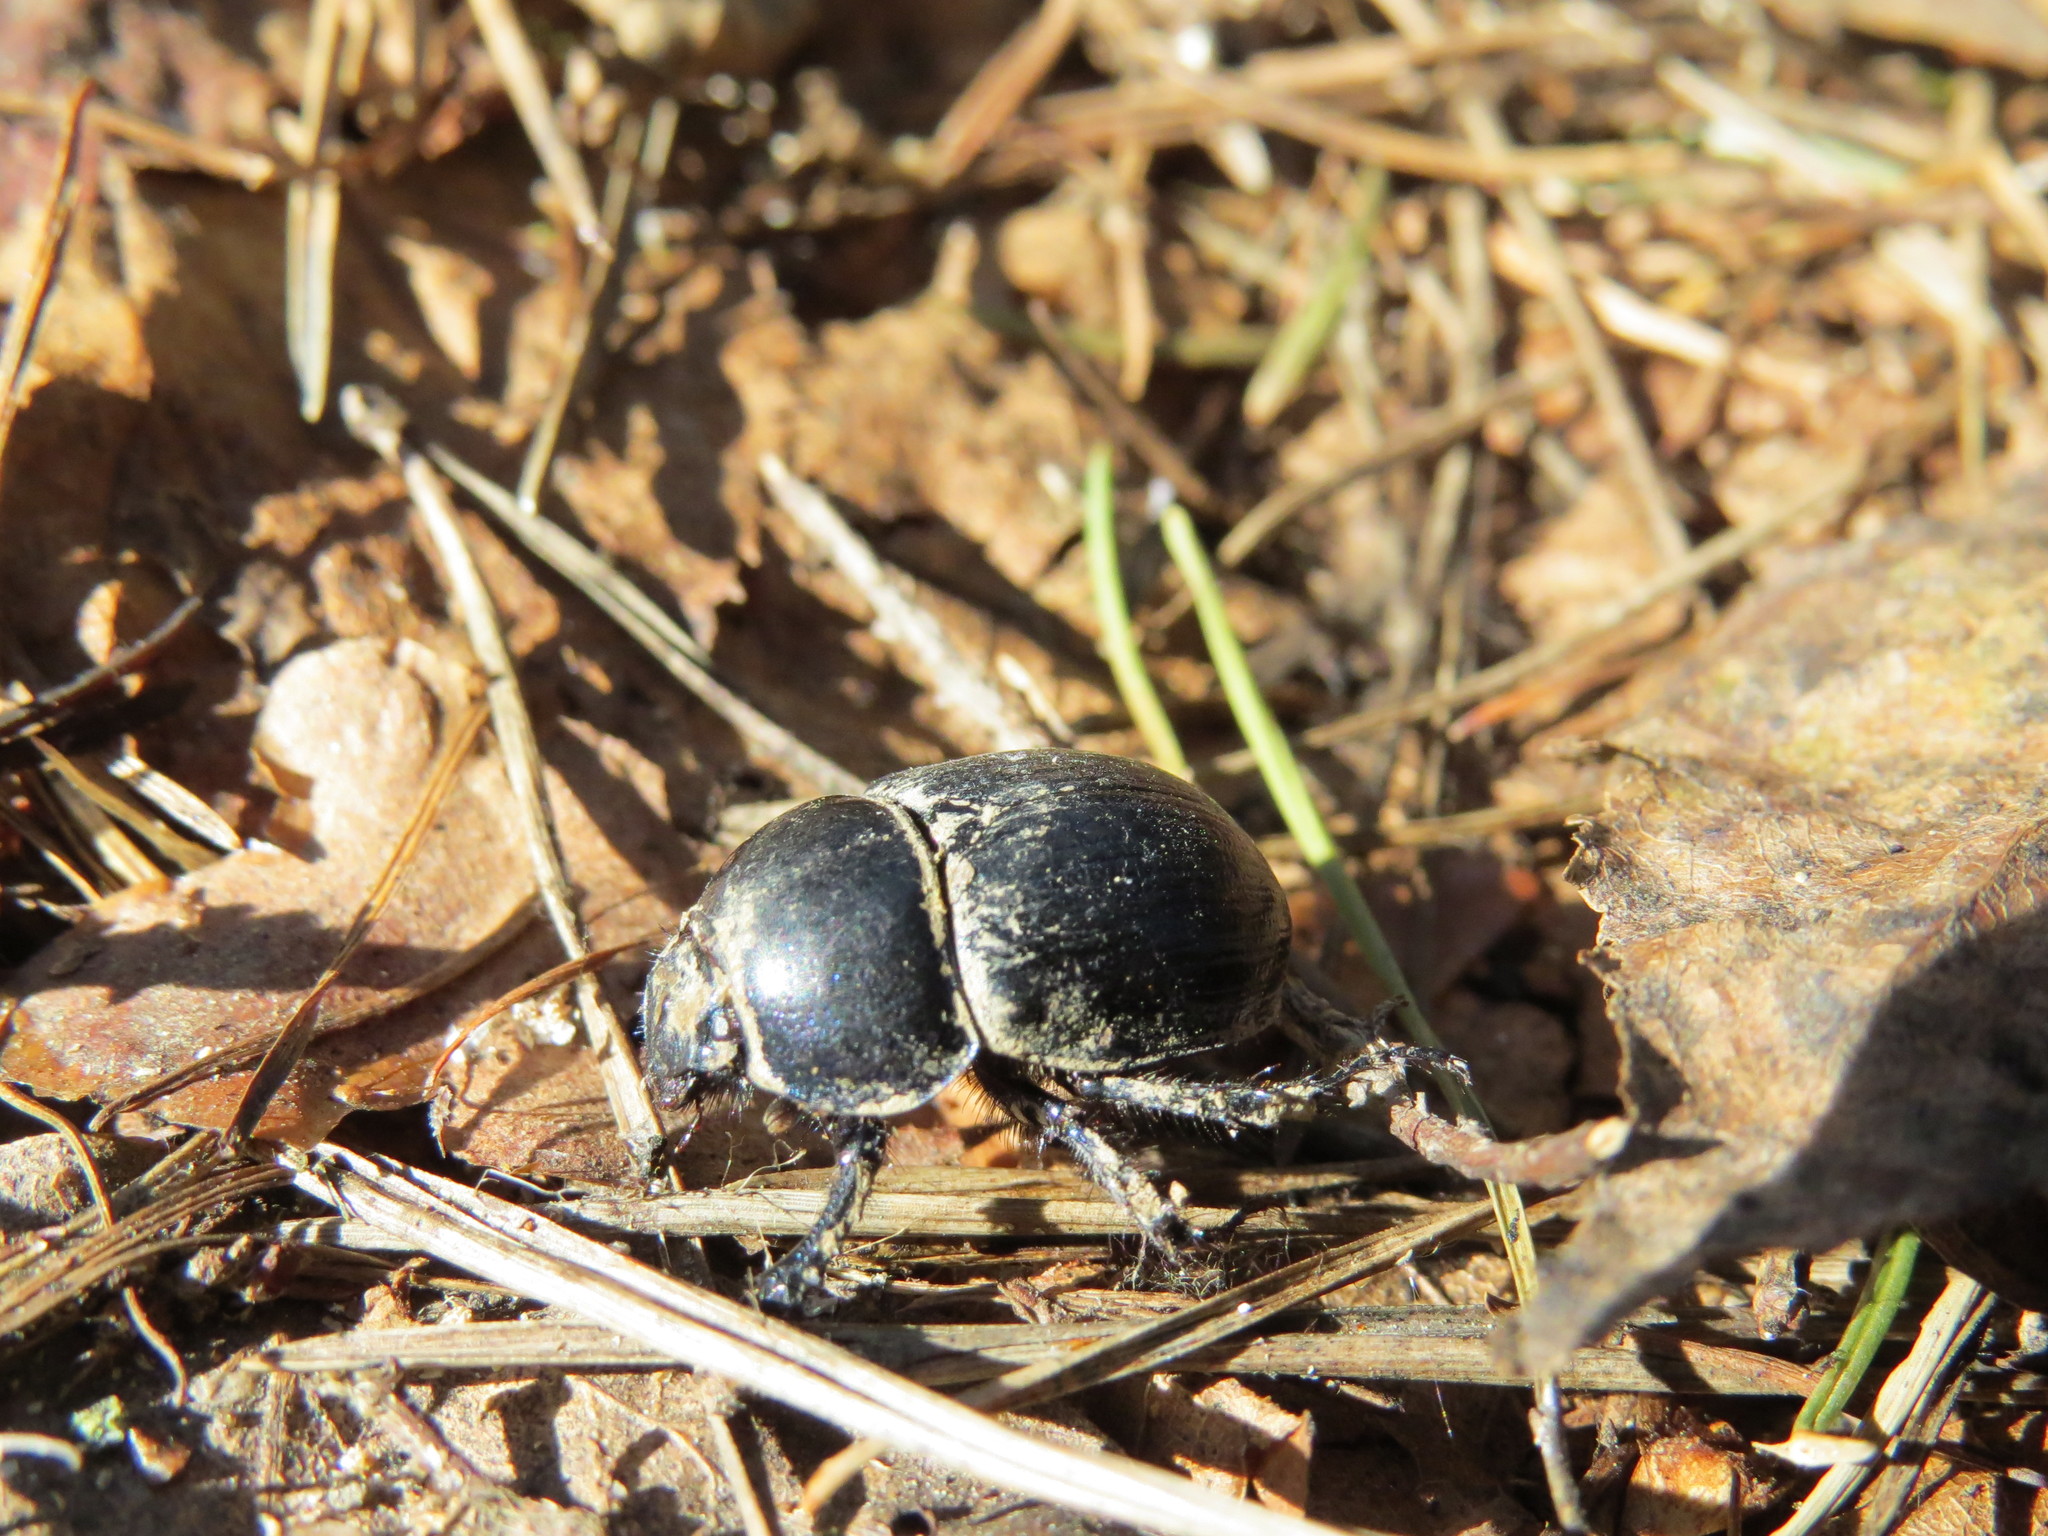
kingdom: Animalia
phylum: Arthropoda
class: Insecta
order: Coleoptera
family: Geotrupidae
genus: Anoplotrupes
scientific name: Anoplotrupes stercorosus
